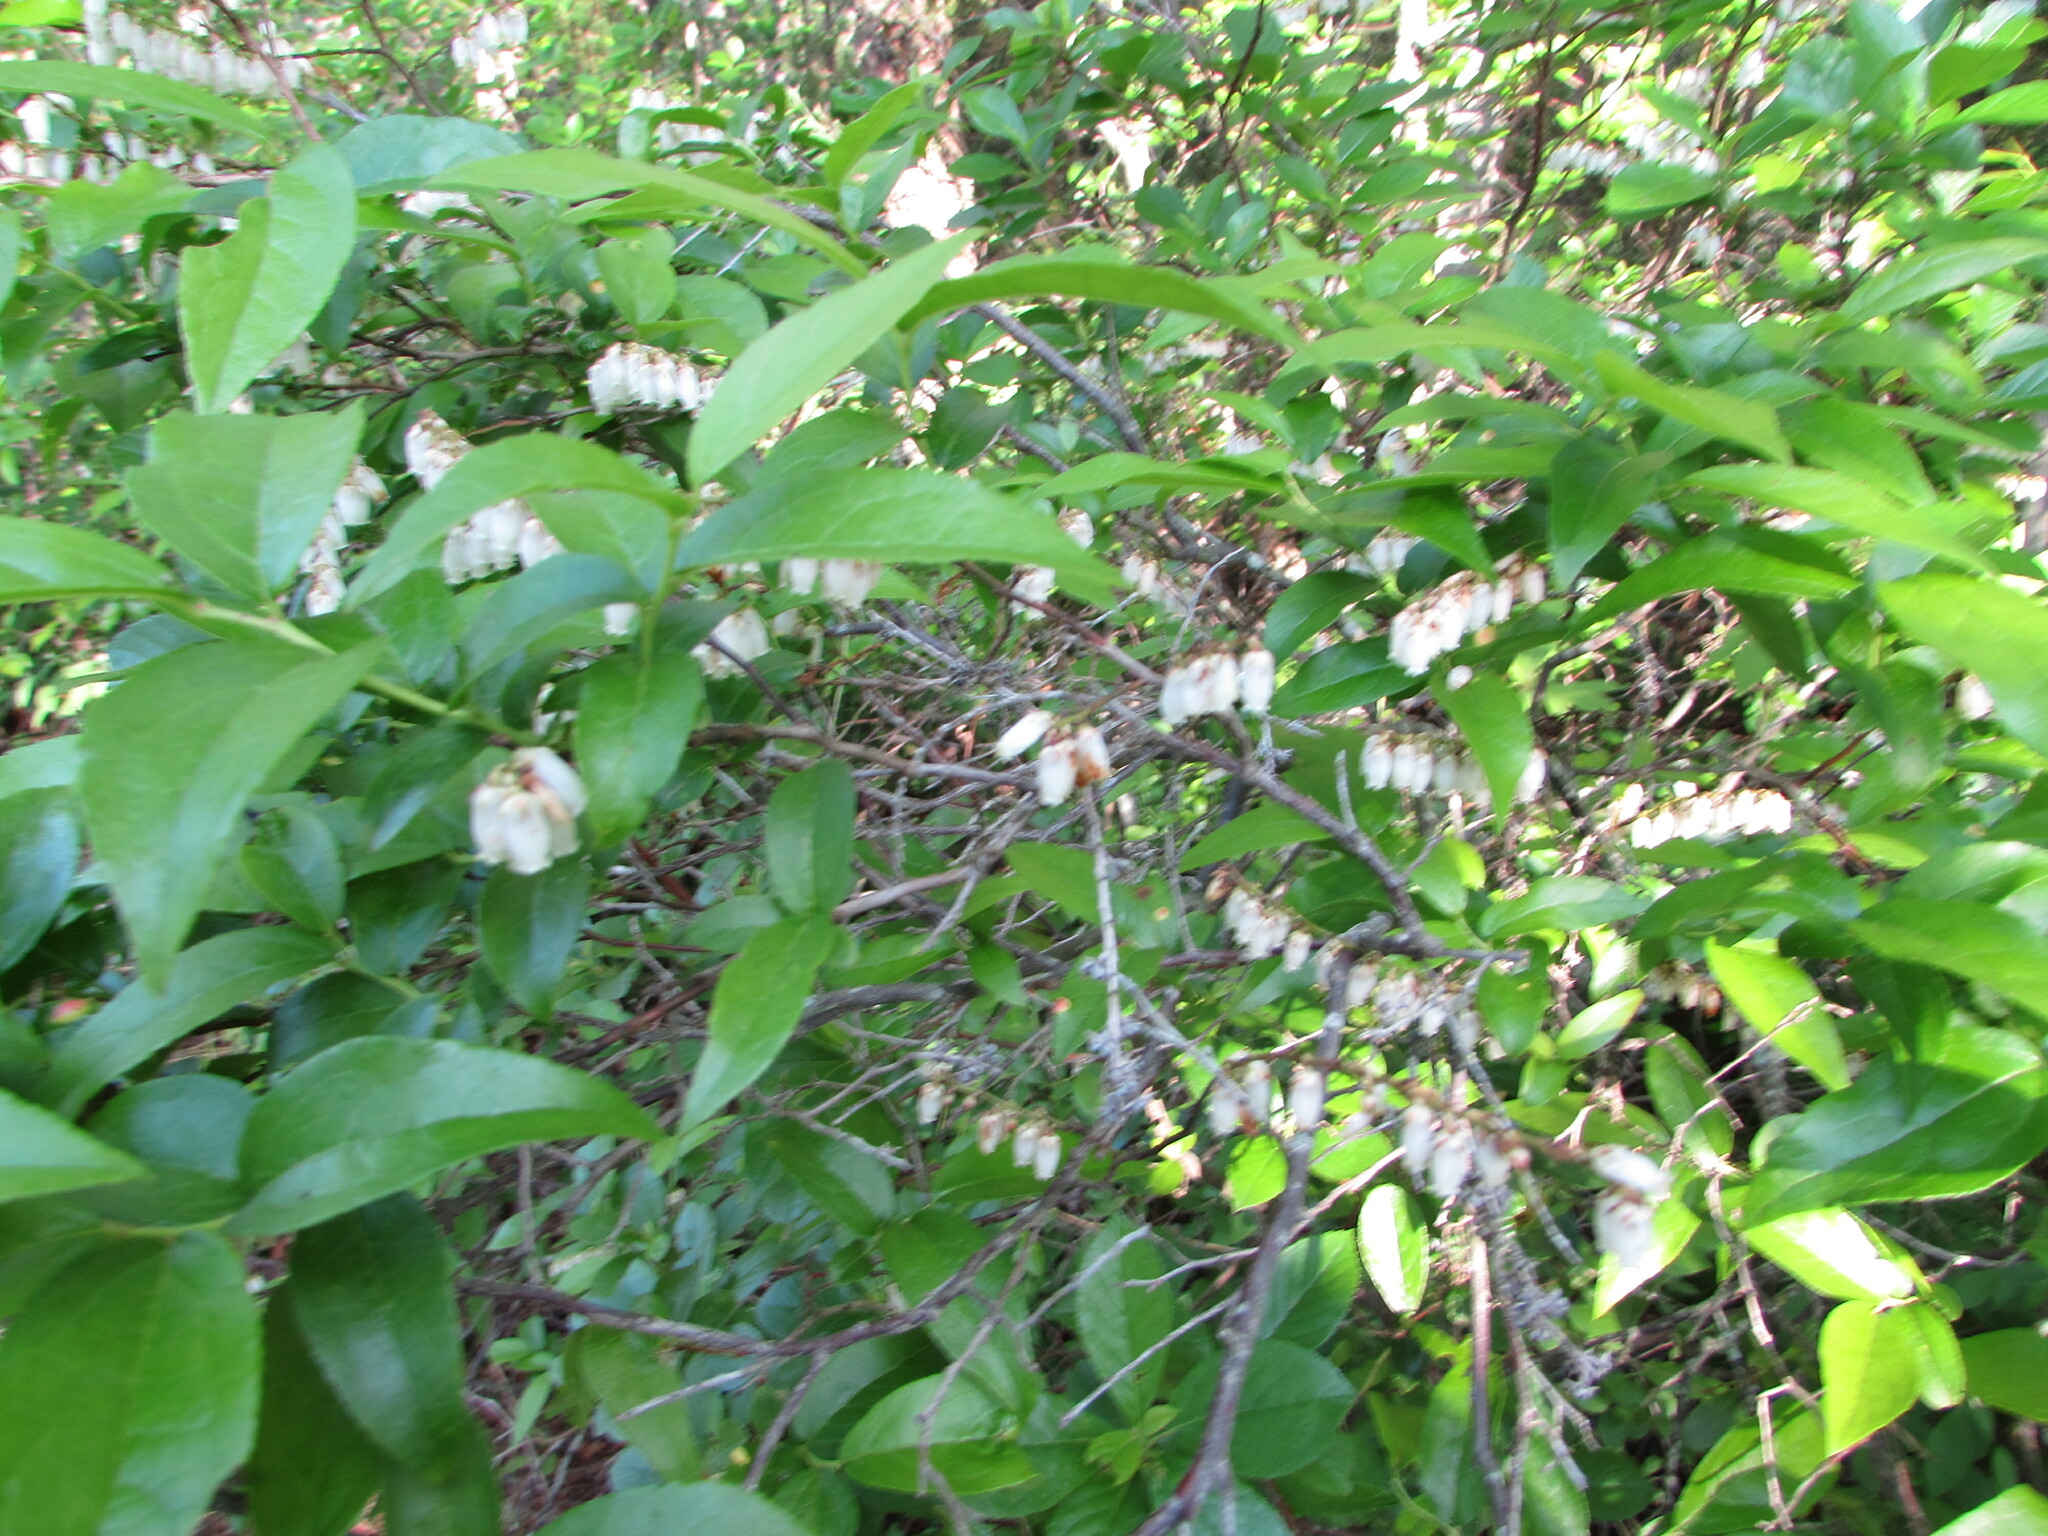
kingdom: Plantae
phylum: Tracheophyta
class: Magnoliopsida
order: Ericales
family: Ericaceae
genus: Eubotrys
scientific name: Eubotrys racemosa
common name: Fetterbush
